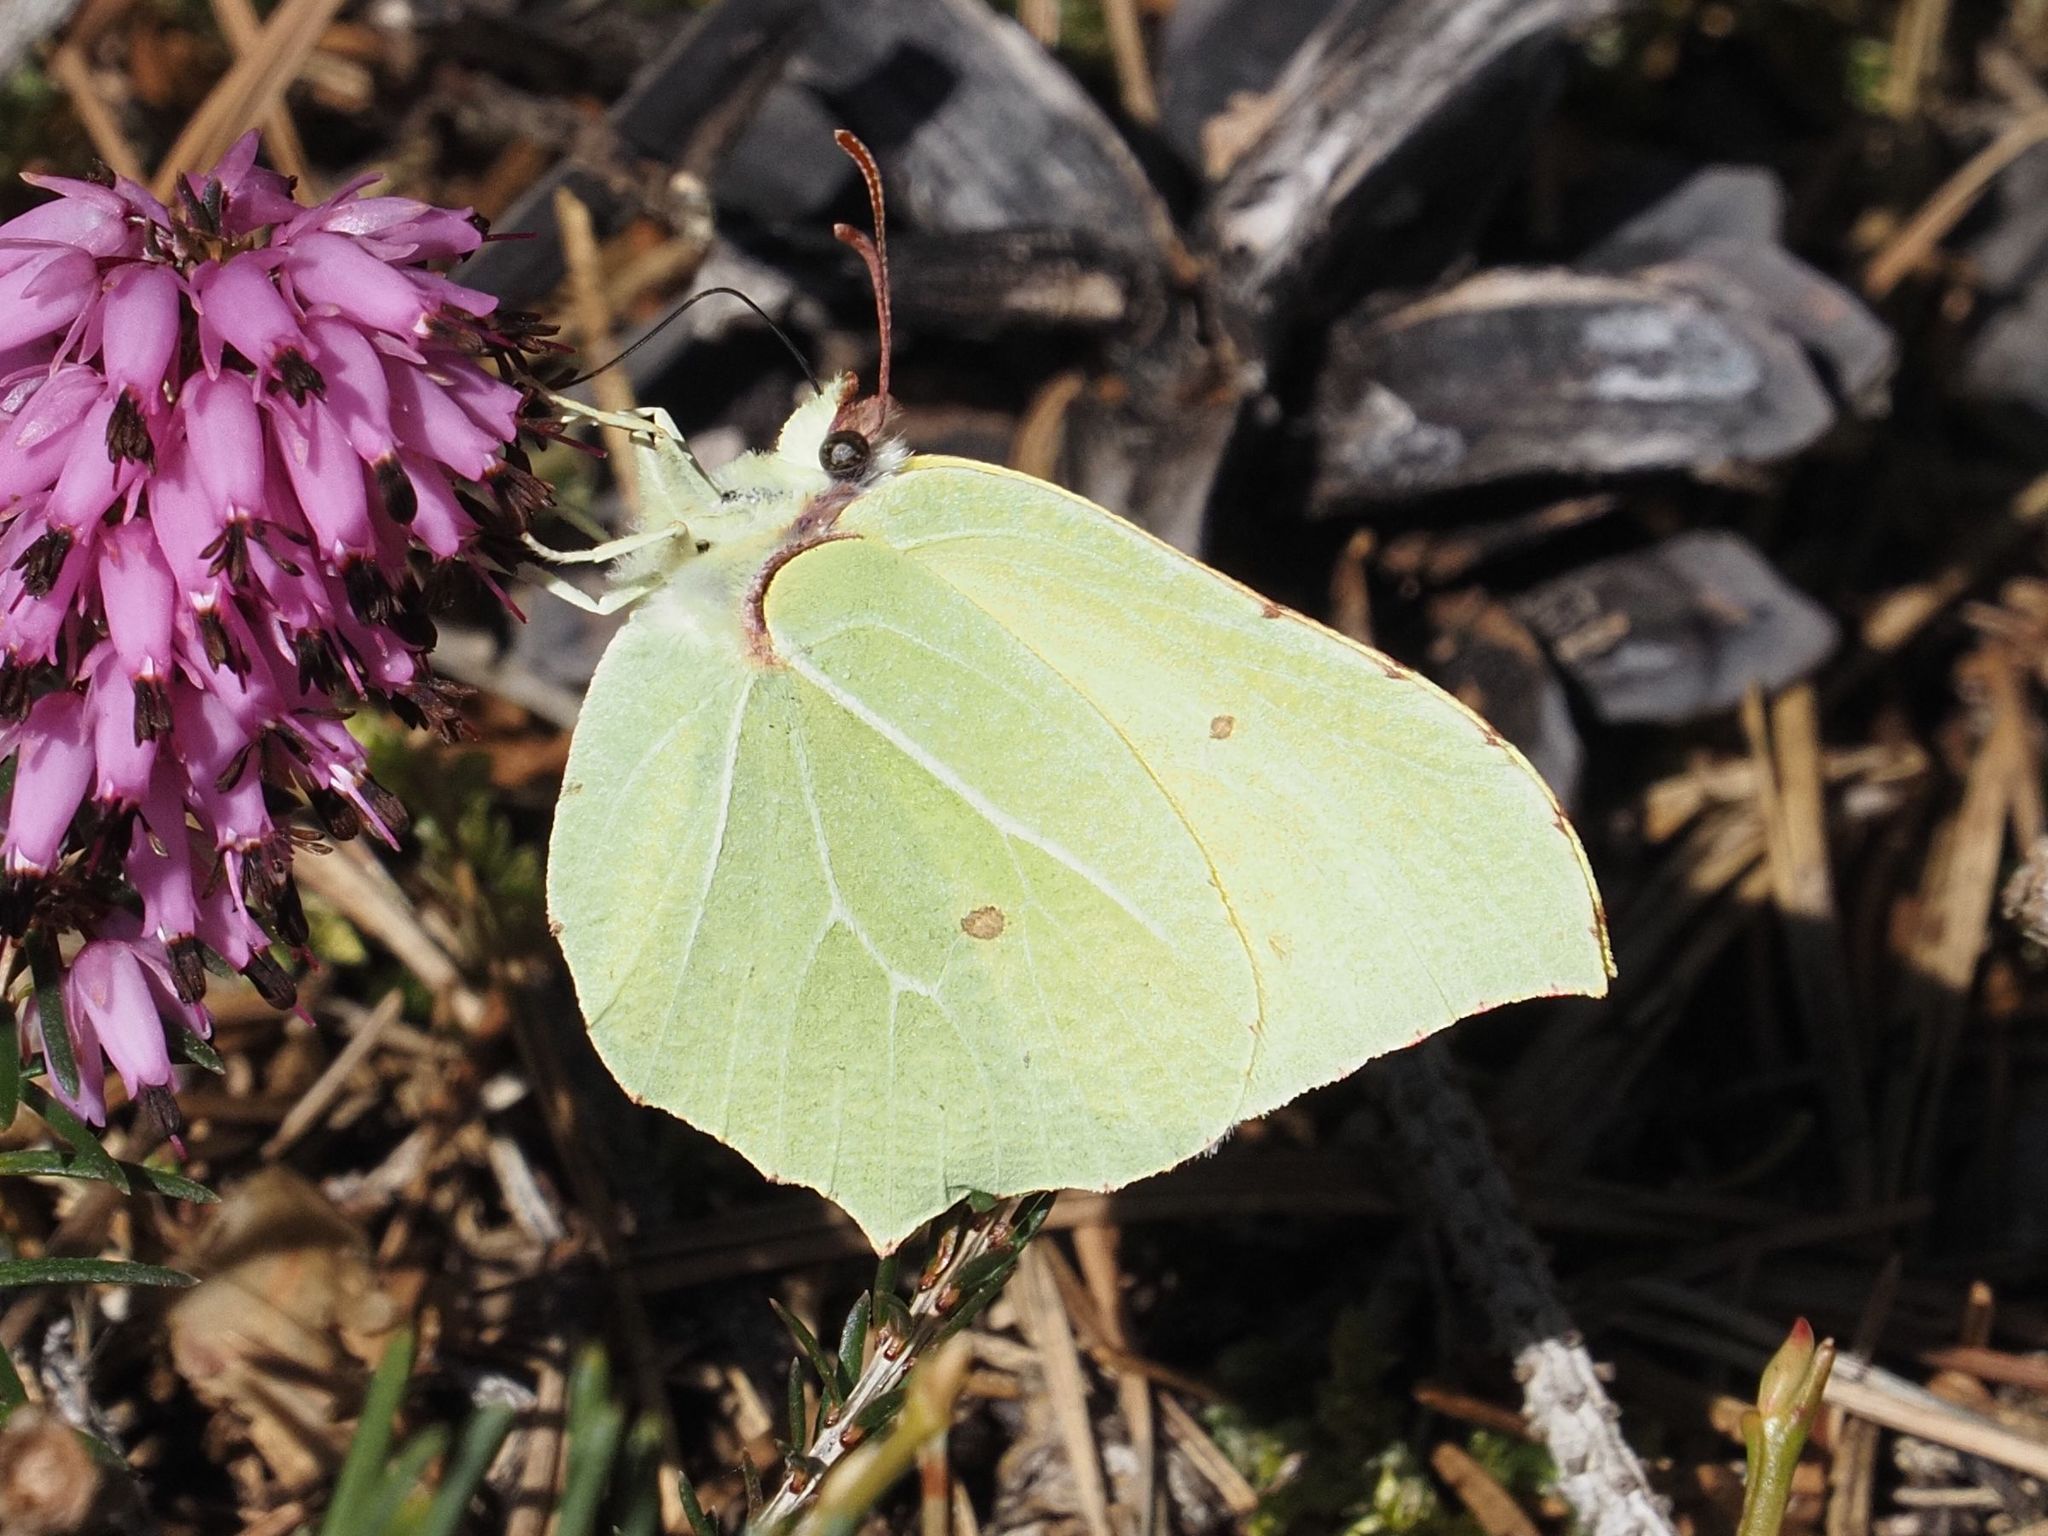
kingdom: Animalia
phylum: Arthropoda
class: Insecta
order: Lepidoptera
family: Pieridae
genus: Gonepteryx
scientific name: Gonepteryx rhamni
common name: Brimstone
